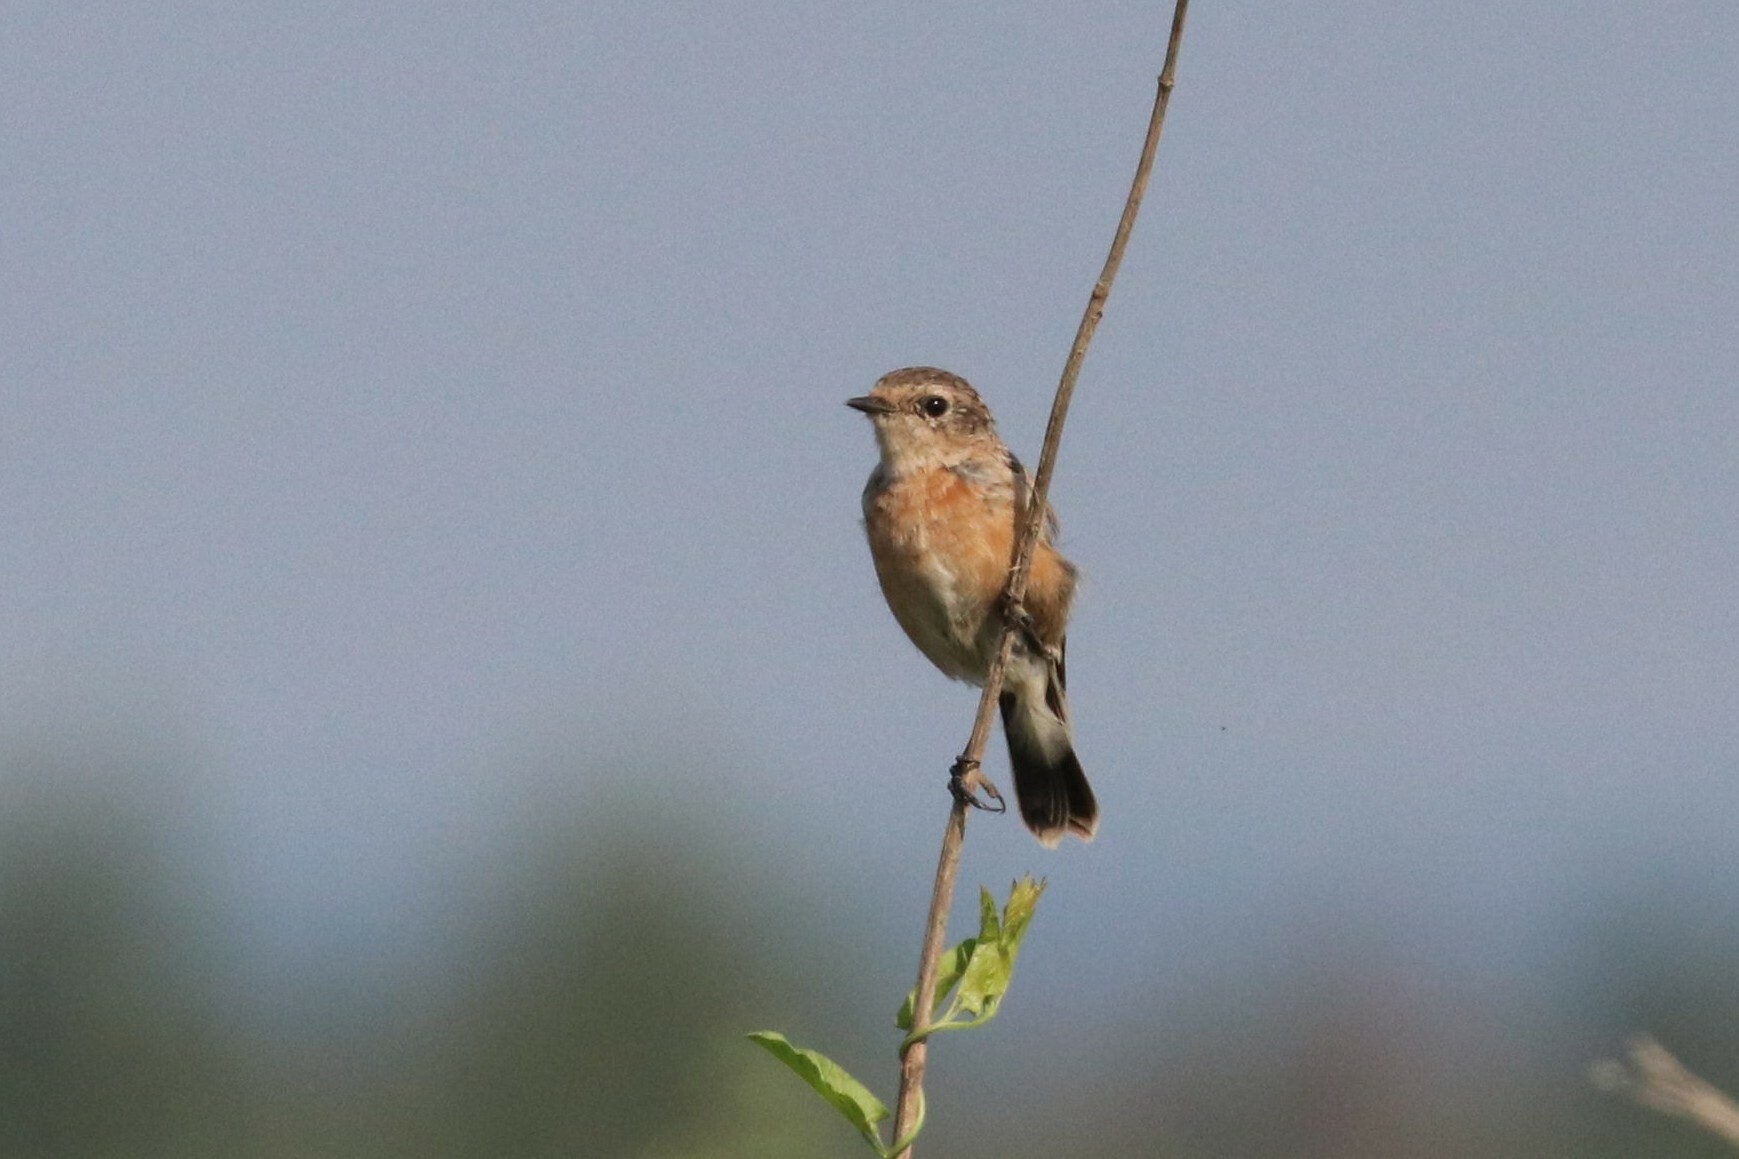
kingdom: Animalia
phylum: Chordata
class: Aves
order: Passeriformes
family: Muscicapidae
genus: Saxicola
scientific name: Saxicola maurus
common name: Siberian stonechat
